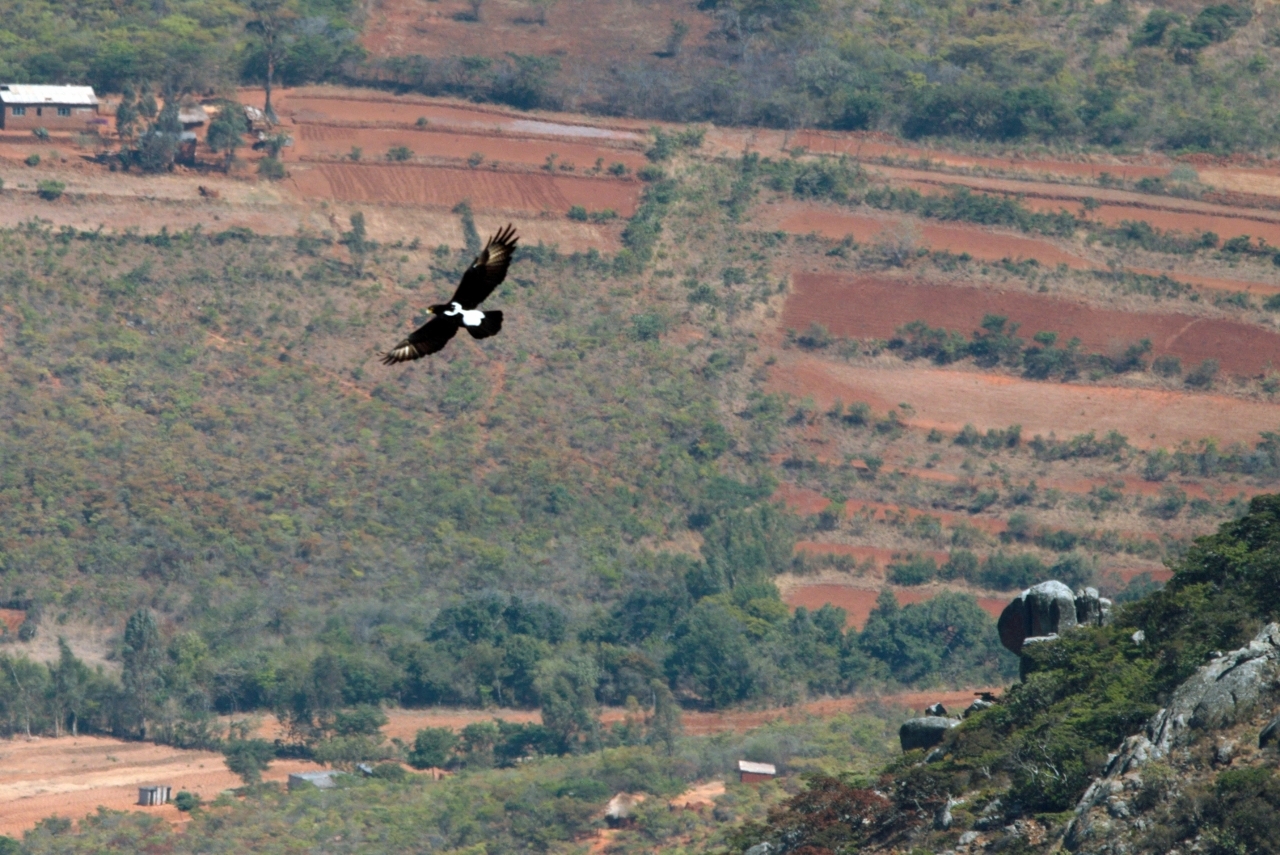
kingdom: Animalia
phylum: Chordata
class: Aves
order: Accipitriformes
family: Accipitridae
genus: Aquila
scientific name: Aquila verreauxii
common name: Verreaux's eagle
